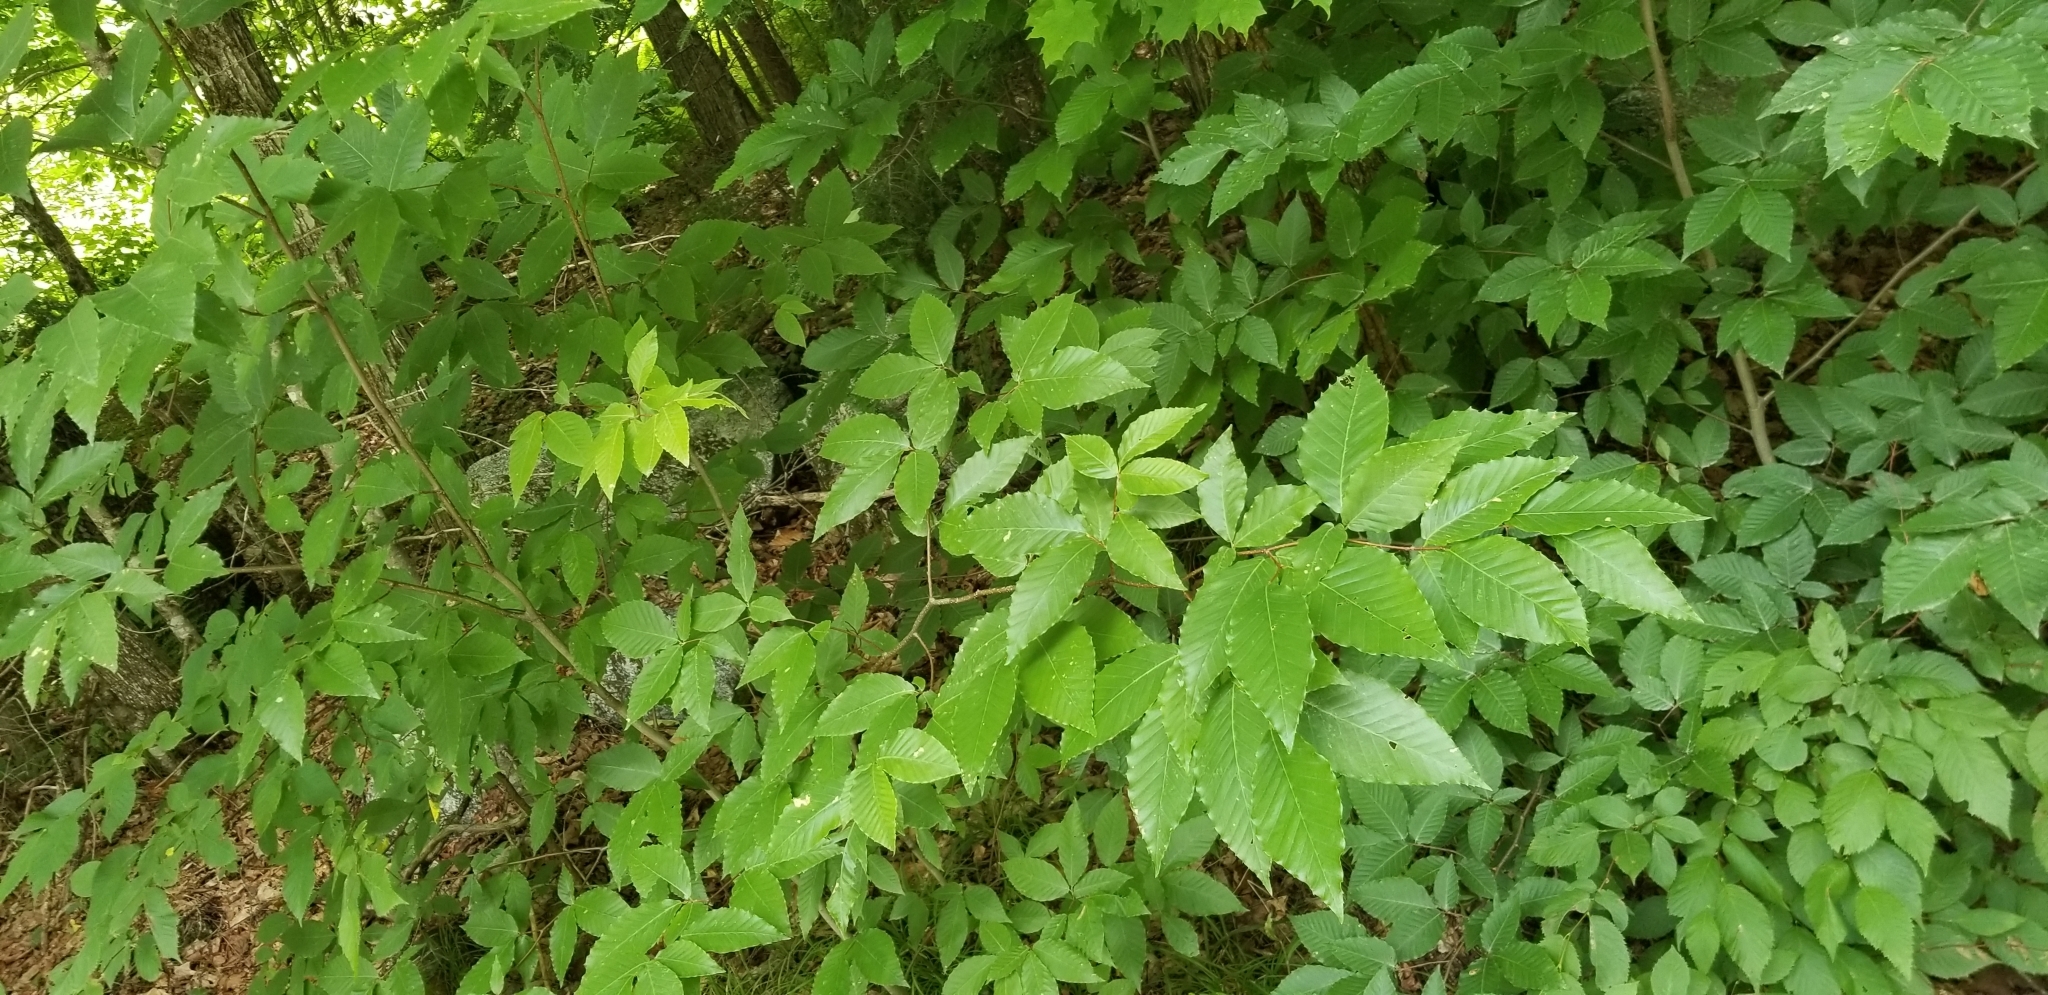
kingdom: Plantae
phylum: Tracheophyta
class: Magnoliopsida
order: Fagales
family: Fagaceae
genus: Fagus
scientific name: Fagus grandifolia
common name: American beech
